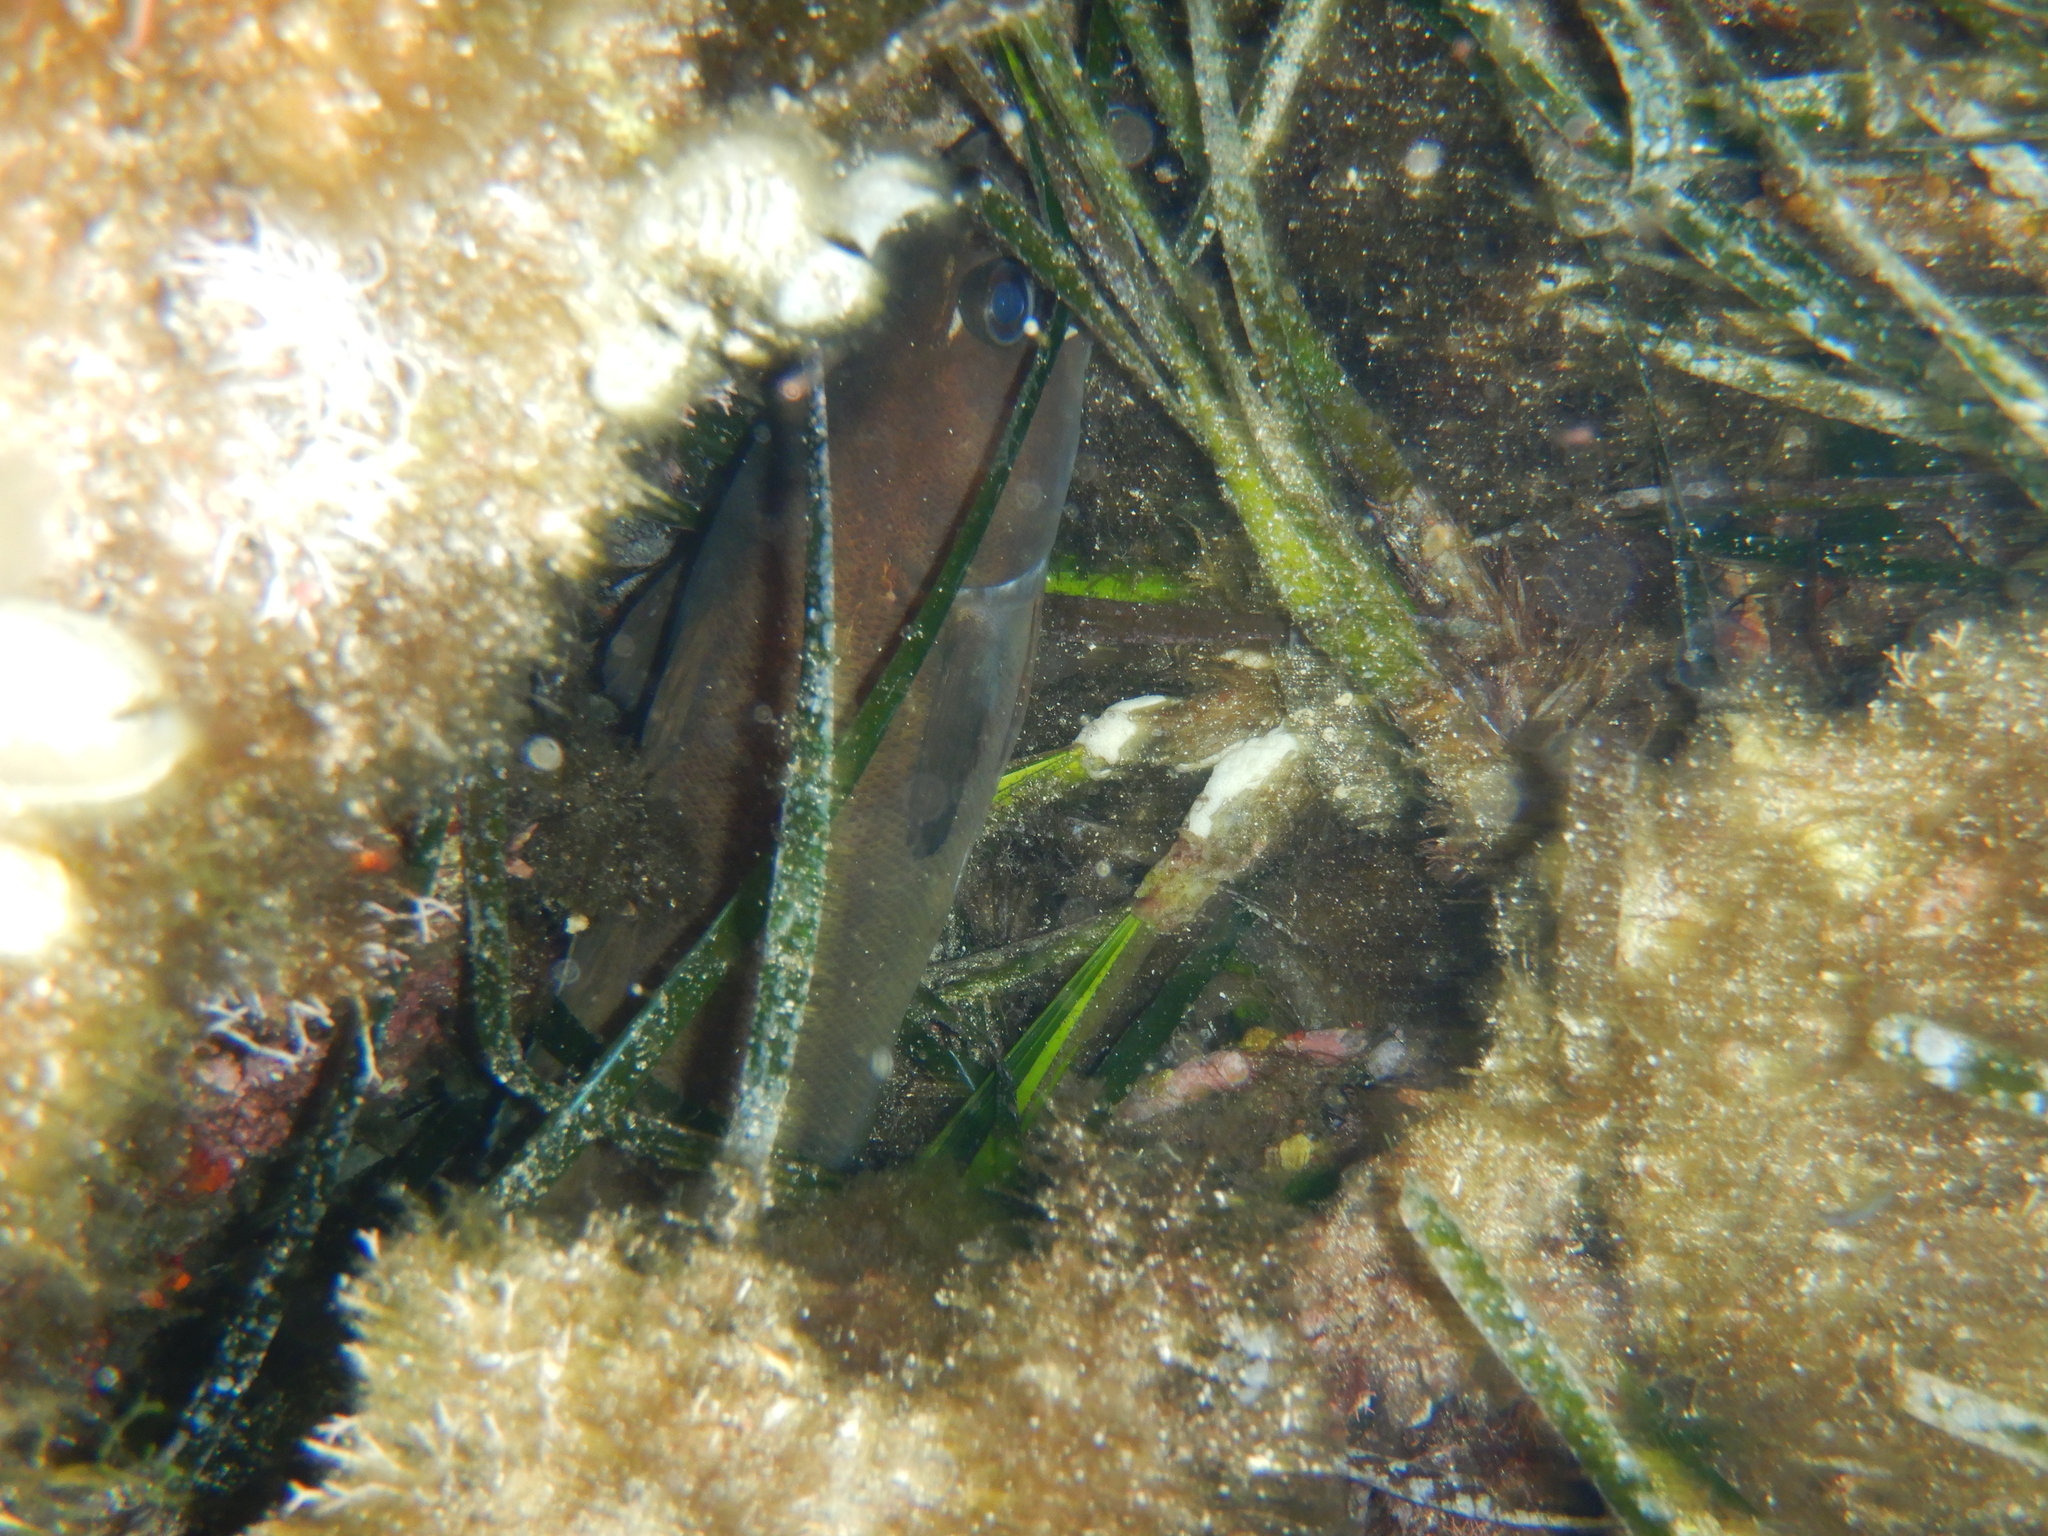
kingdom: Animalia
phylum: Chordata
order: Gadiformes
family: Phycidae
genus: Phycis
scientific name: Phycis phycis
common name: Forkbeard
